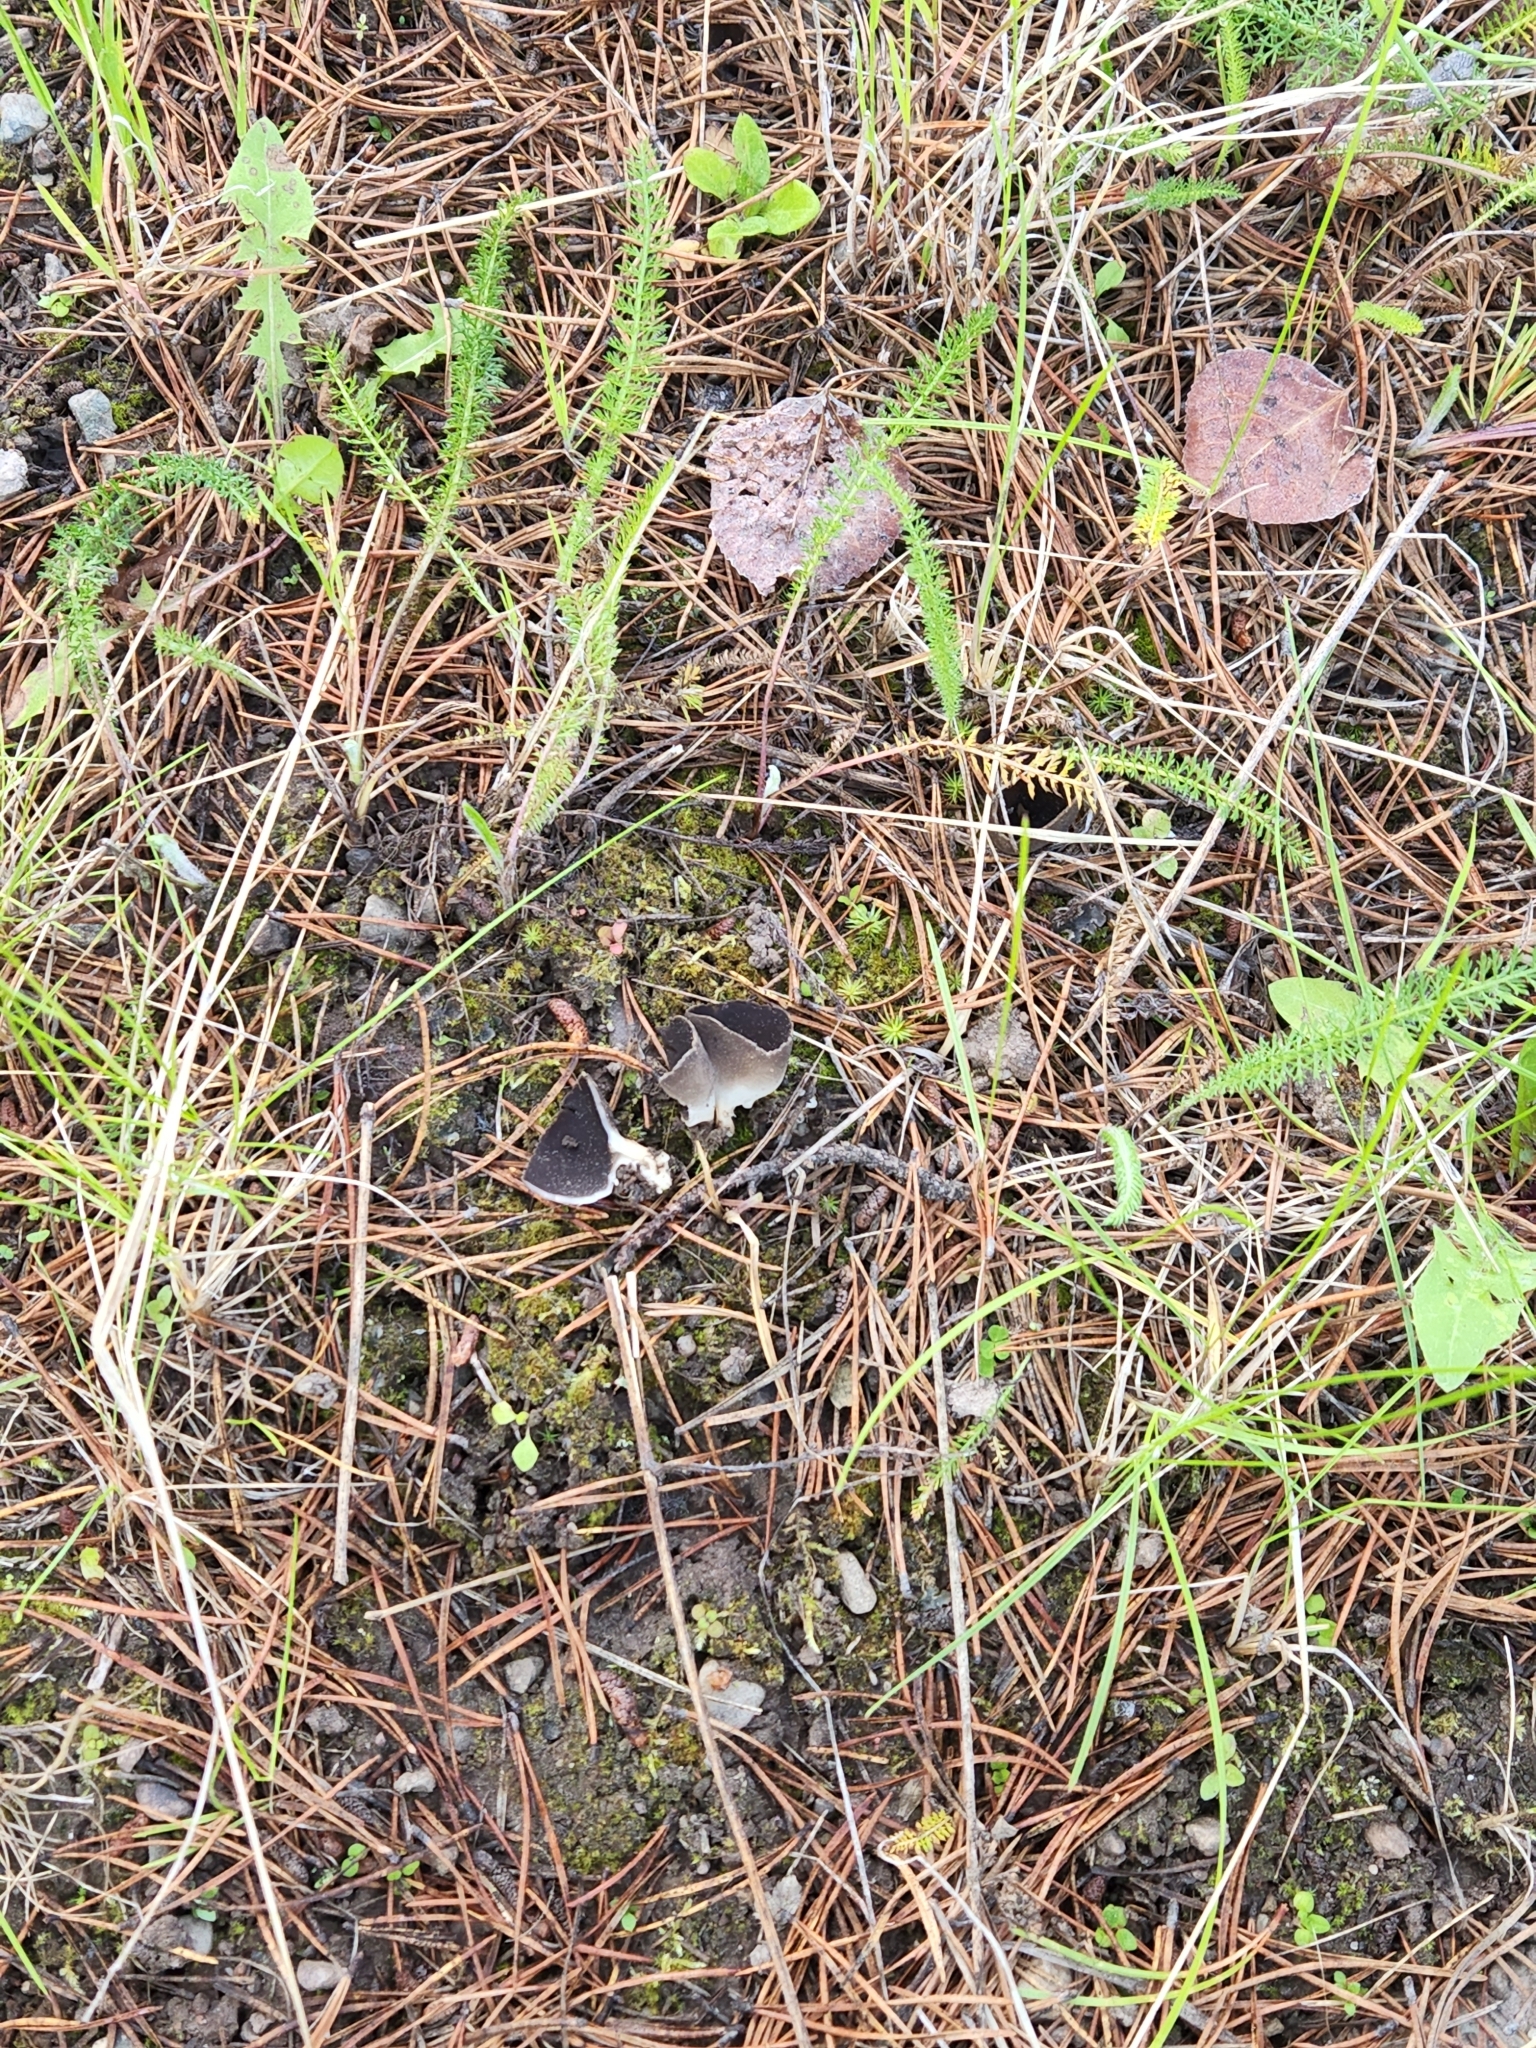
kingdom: Fungi
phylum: Ascomycota
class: Pezizomycetes
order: Pezizales
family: Helvellaceae
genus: Dissingia
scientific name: Dissingia leucomelaena
